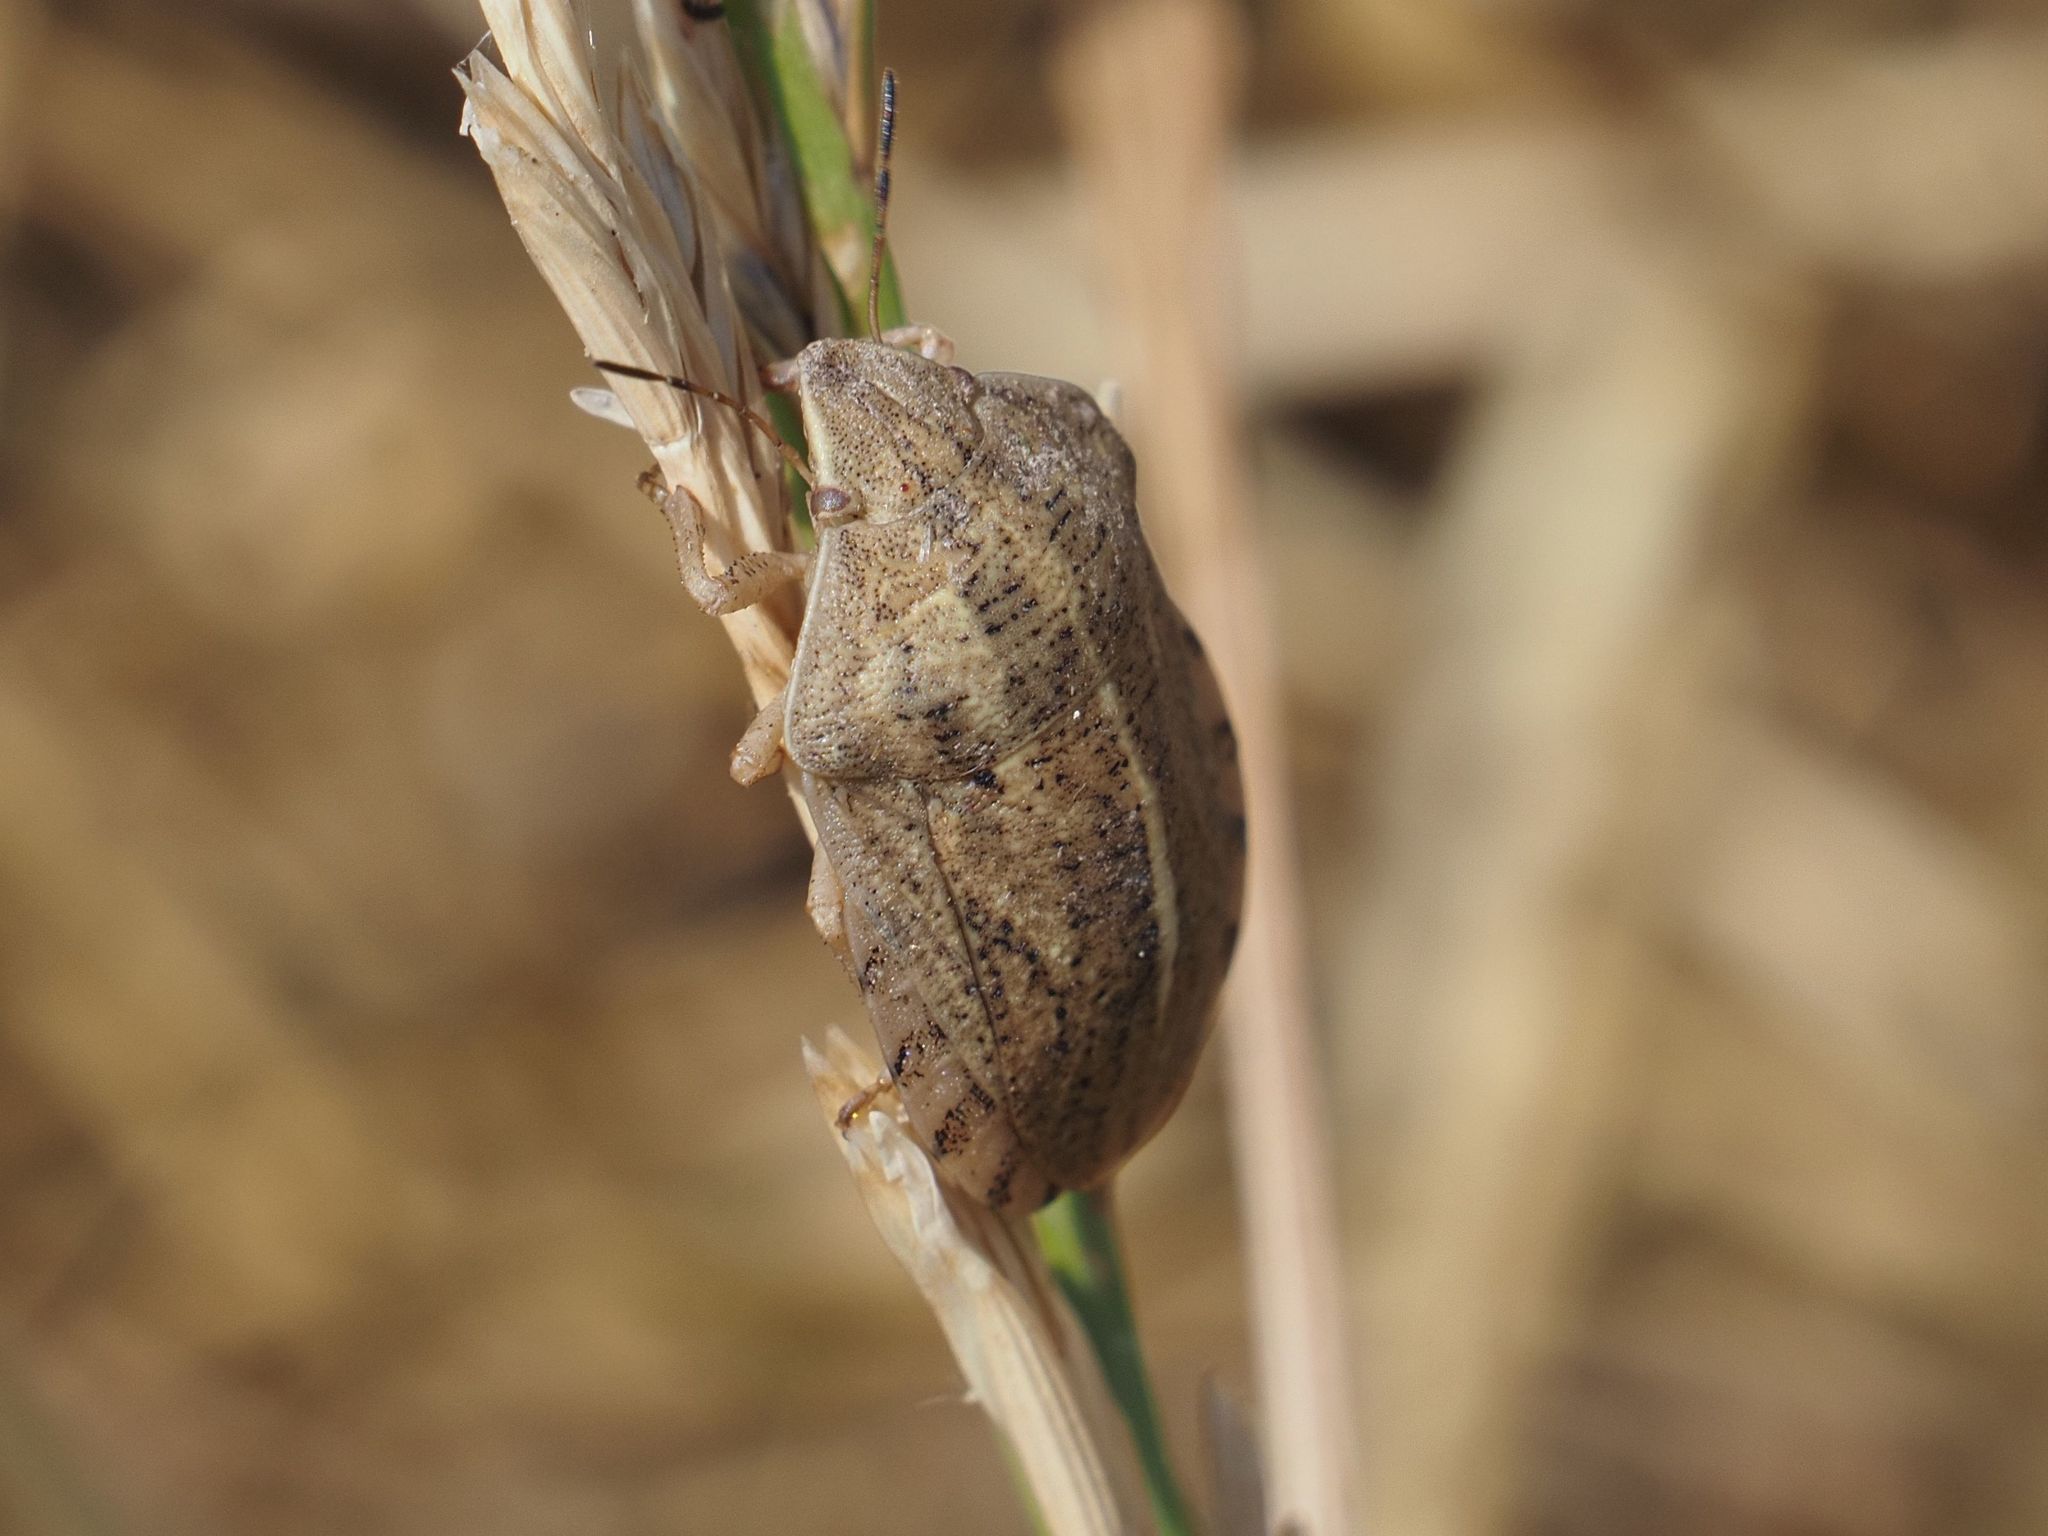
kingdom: Animalia
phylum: Arthropoda
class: Insecta
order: Hemiptera
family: Scutelleridae
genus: Eurygaster
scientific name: Eurygaster austriaca
